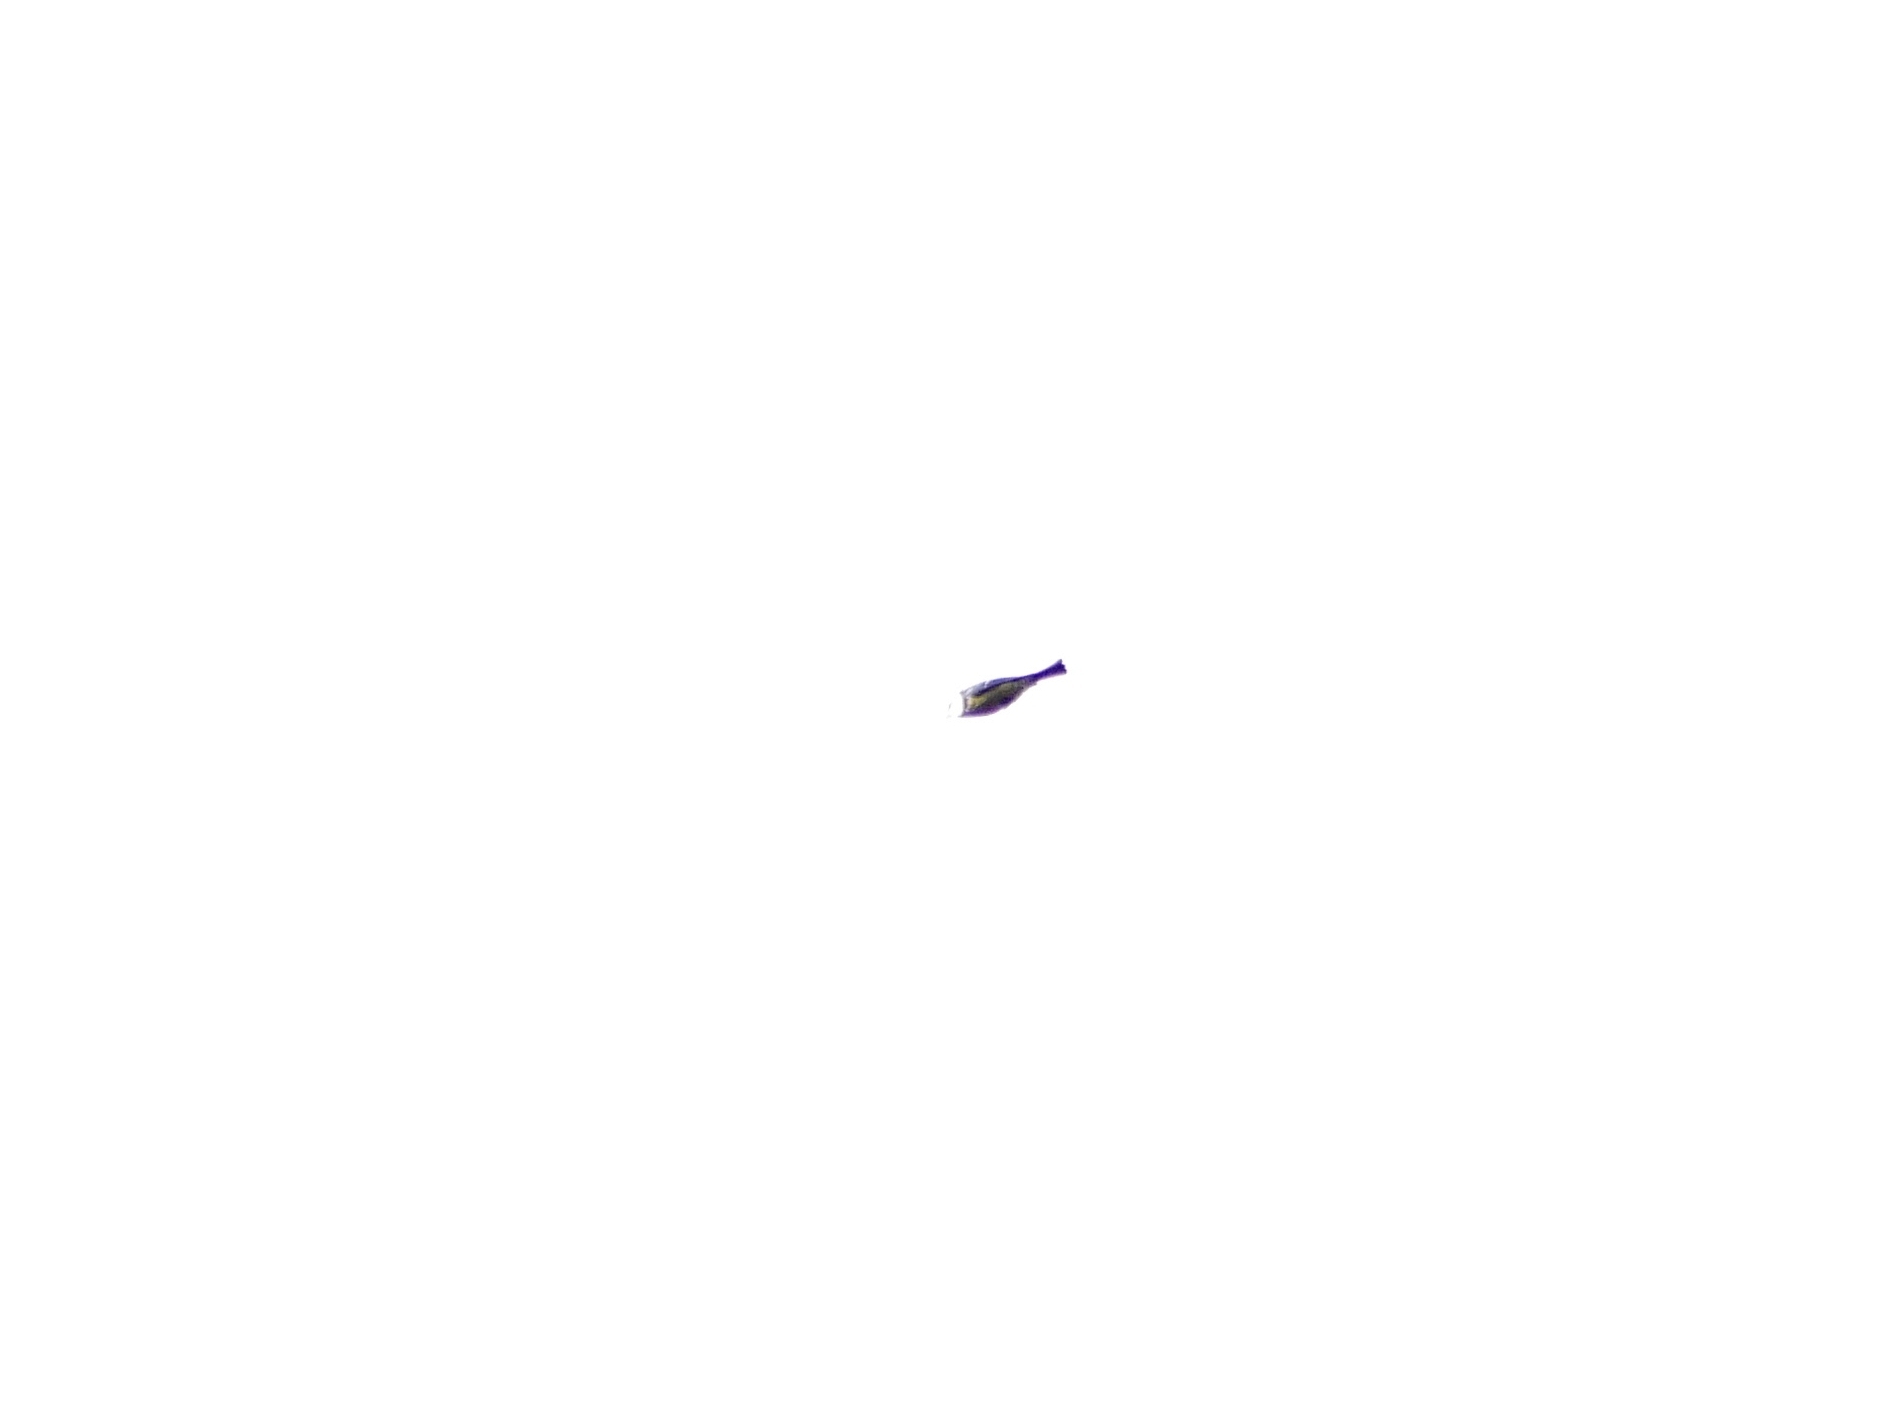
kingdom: Animalia
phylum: Chordata
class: Aves
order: Passeriformes
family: Paridae
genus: Cyanistes
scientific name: Cyanistes caeruleus
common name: Eurasian blue tit
